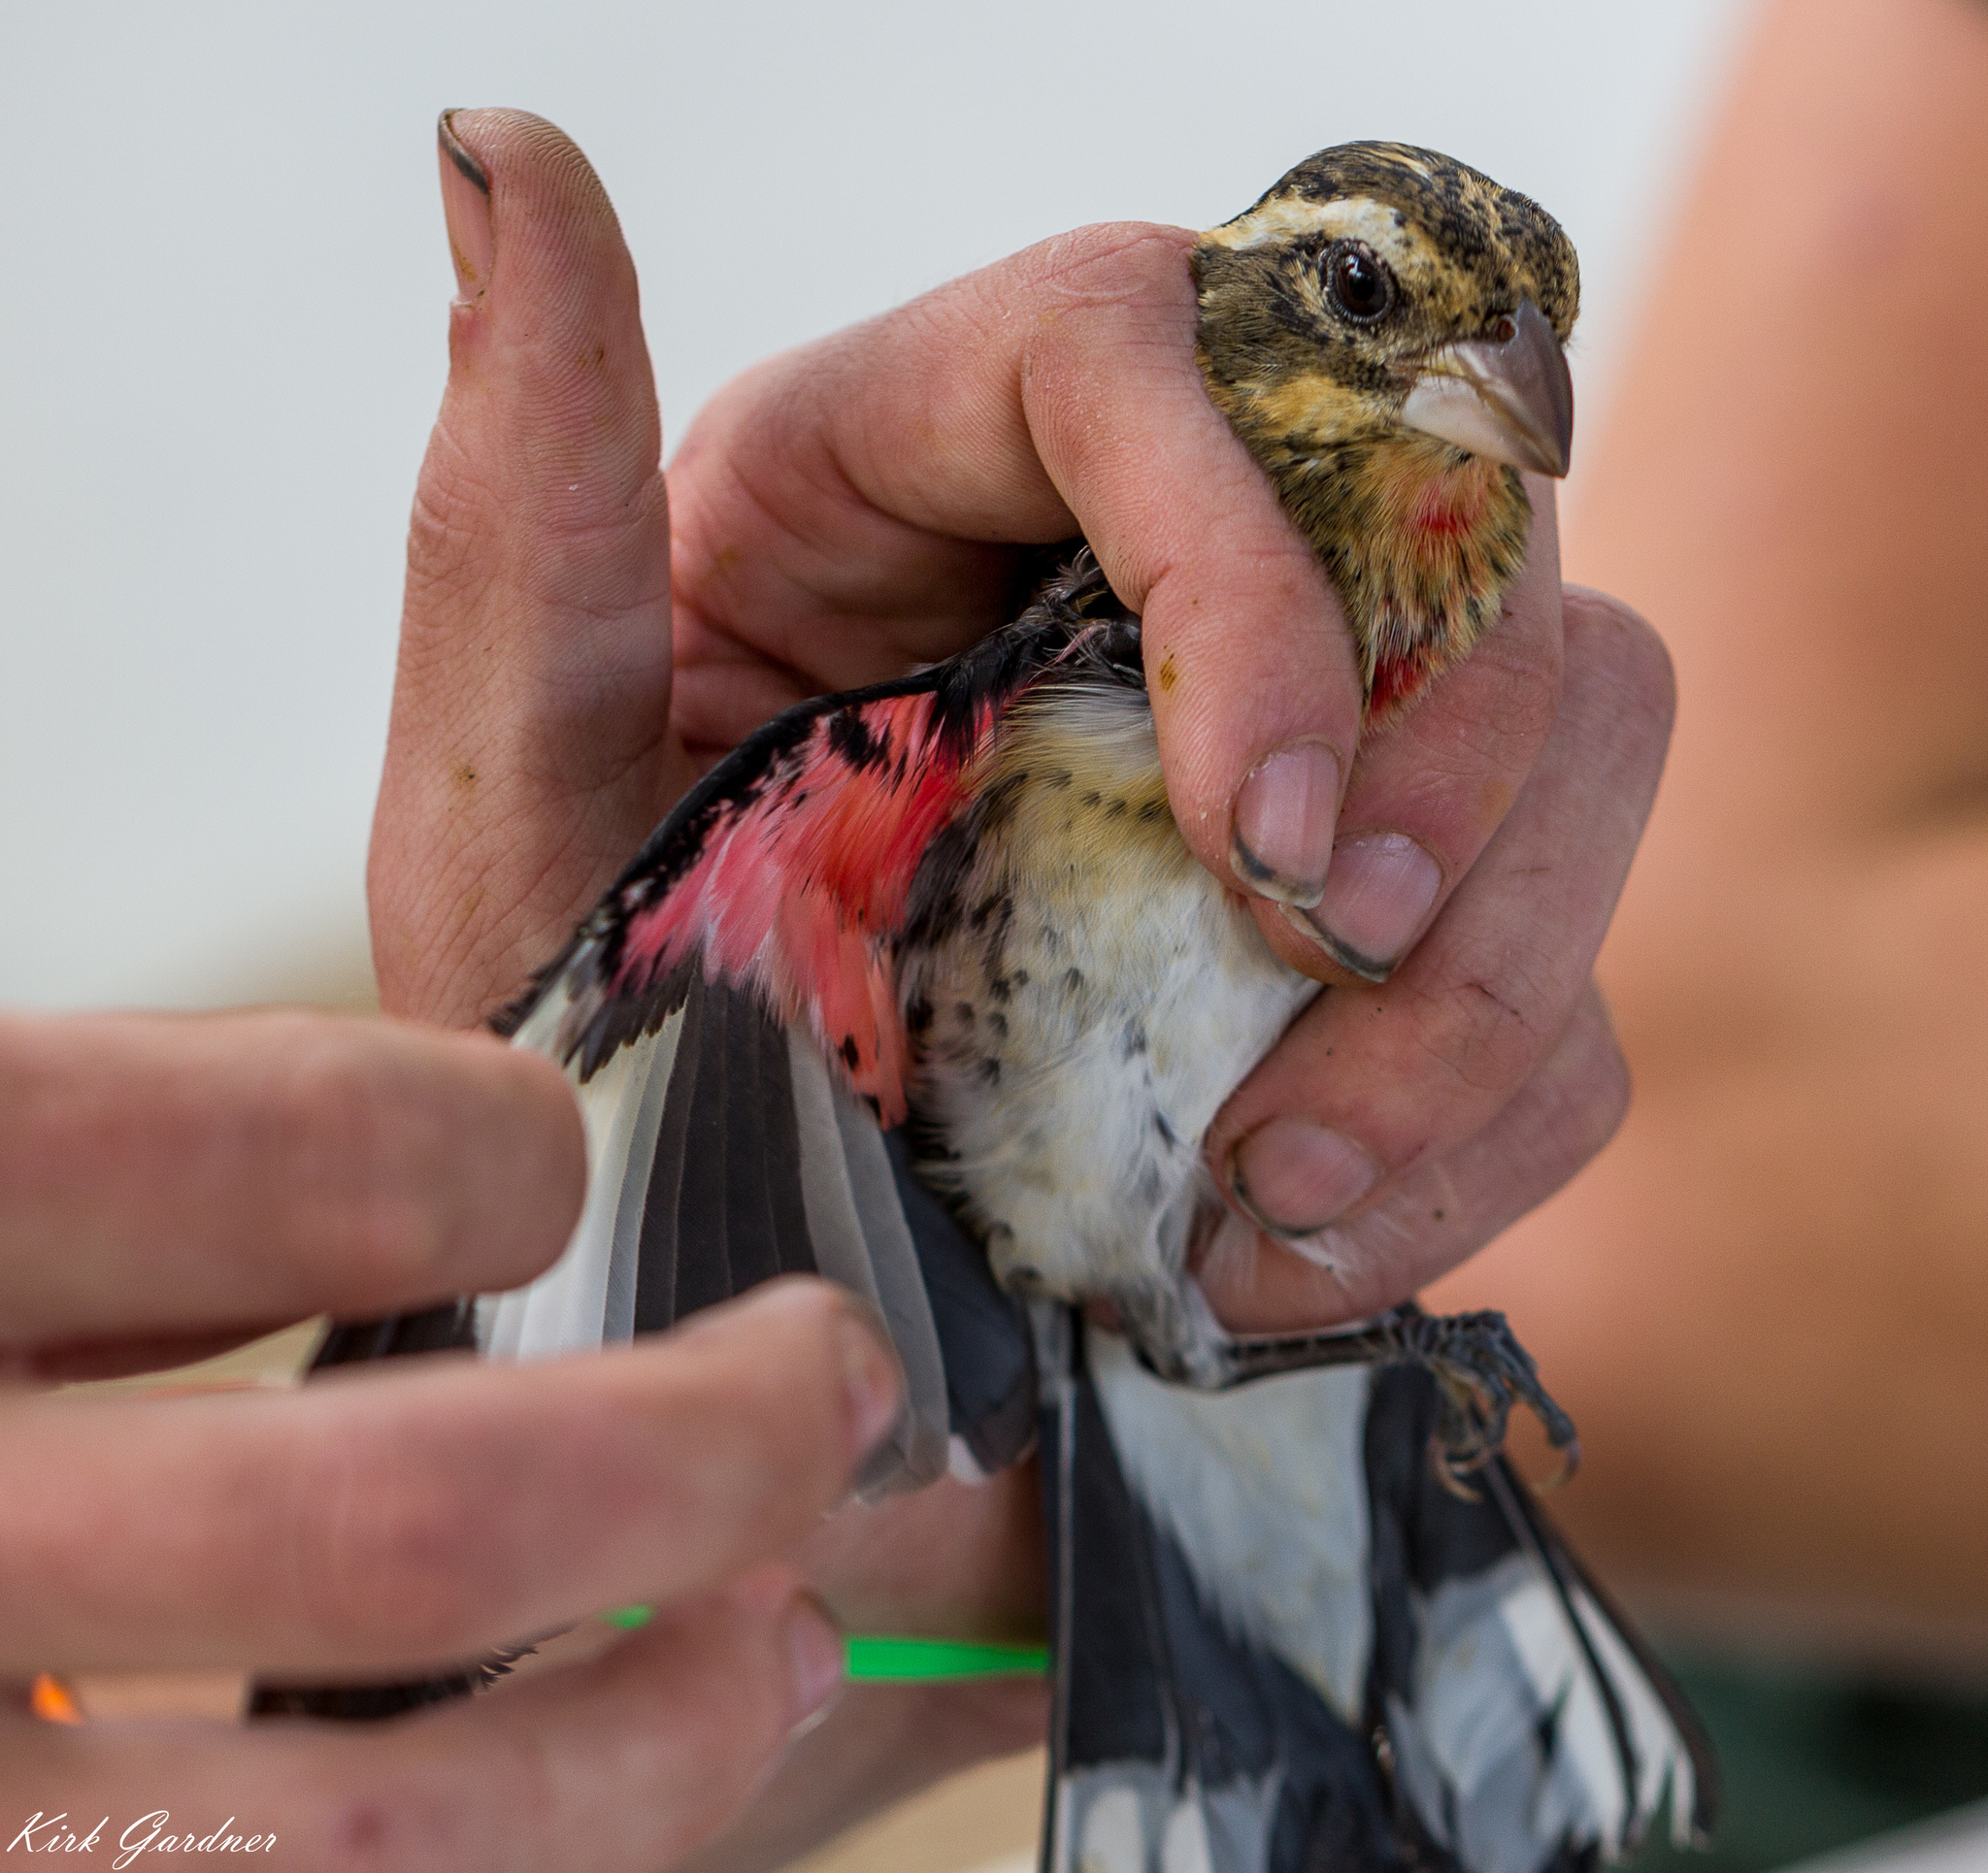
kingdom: Animalia
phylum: Chordata
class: Aves
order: Passeriformes
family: Cardinalidae
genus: Pheucticus
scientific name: Pheucticus ludovicianus
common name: Rose-breasted grosbeak
